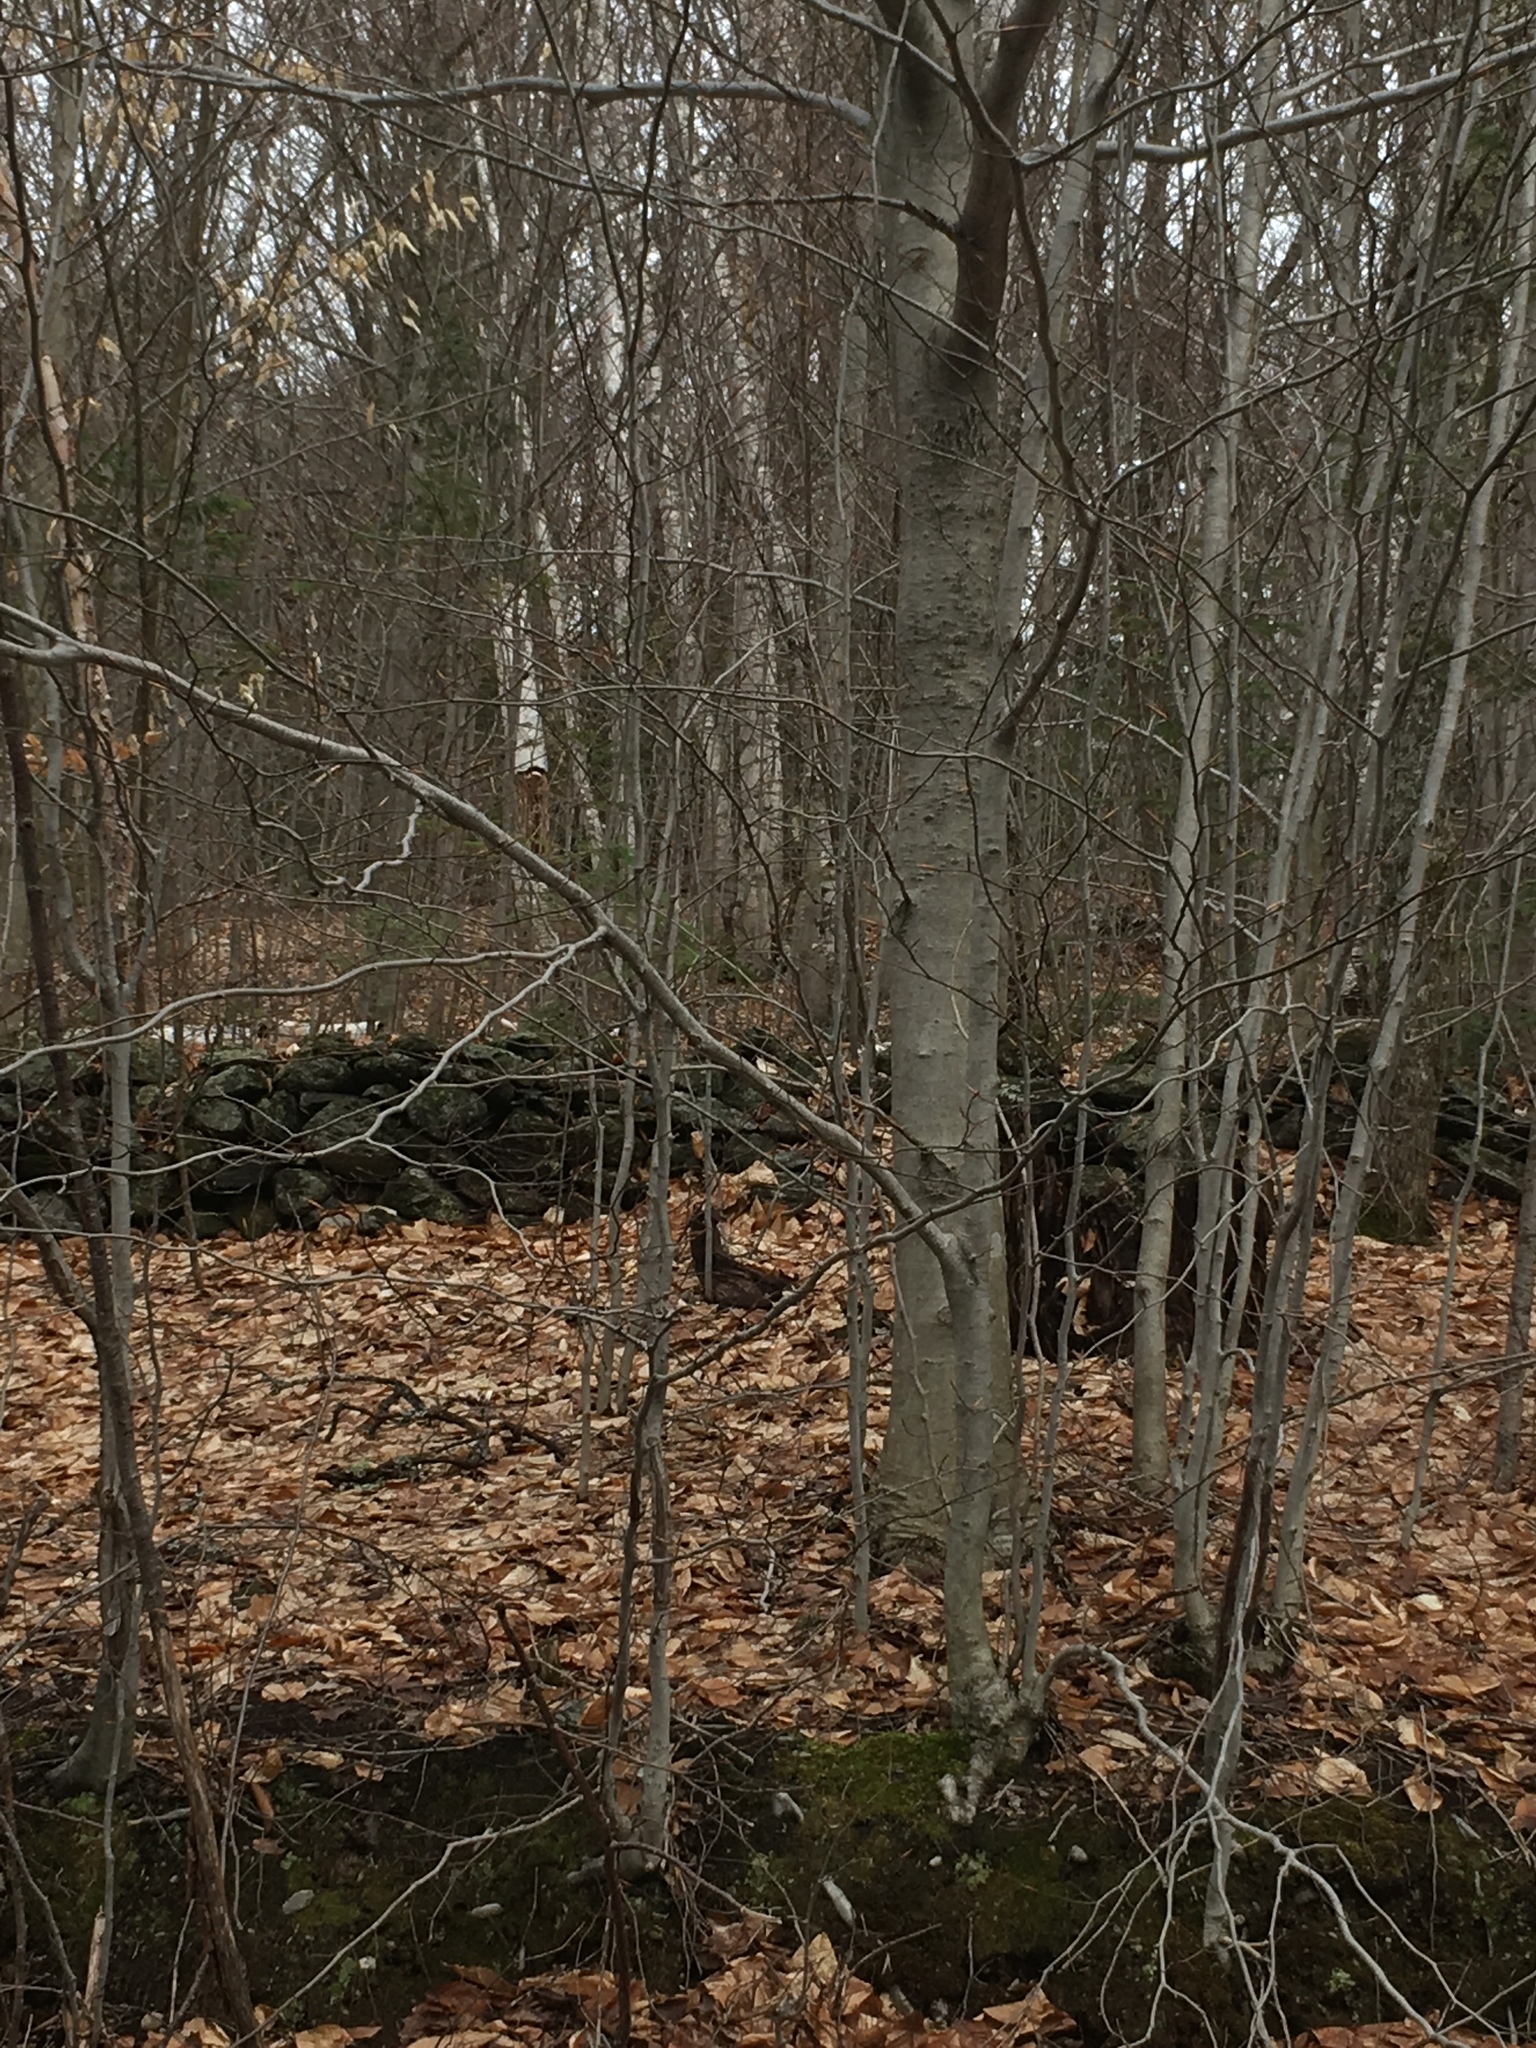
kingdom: Plantae
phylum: Tracheophyta
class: Magnoliopsida
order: Fagales
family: Fagaceae
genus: Fagus
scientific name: Fagus grandifolia
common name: American beech
